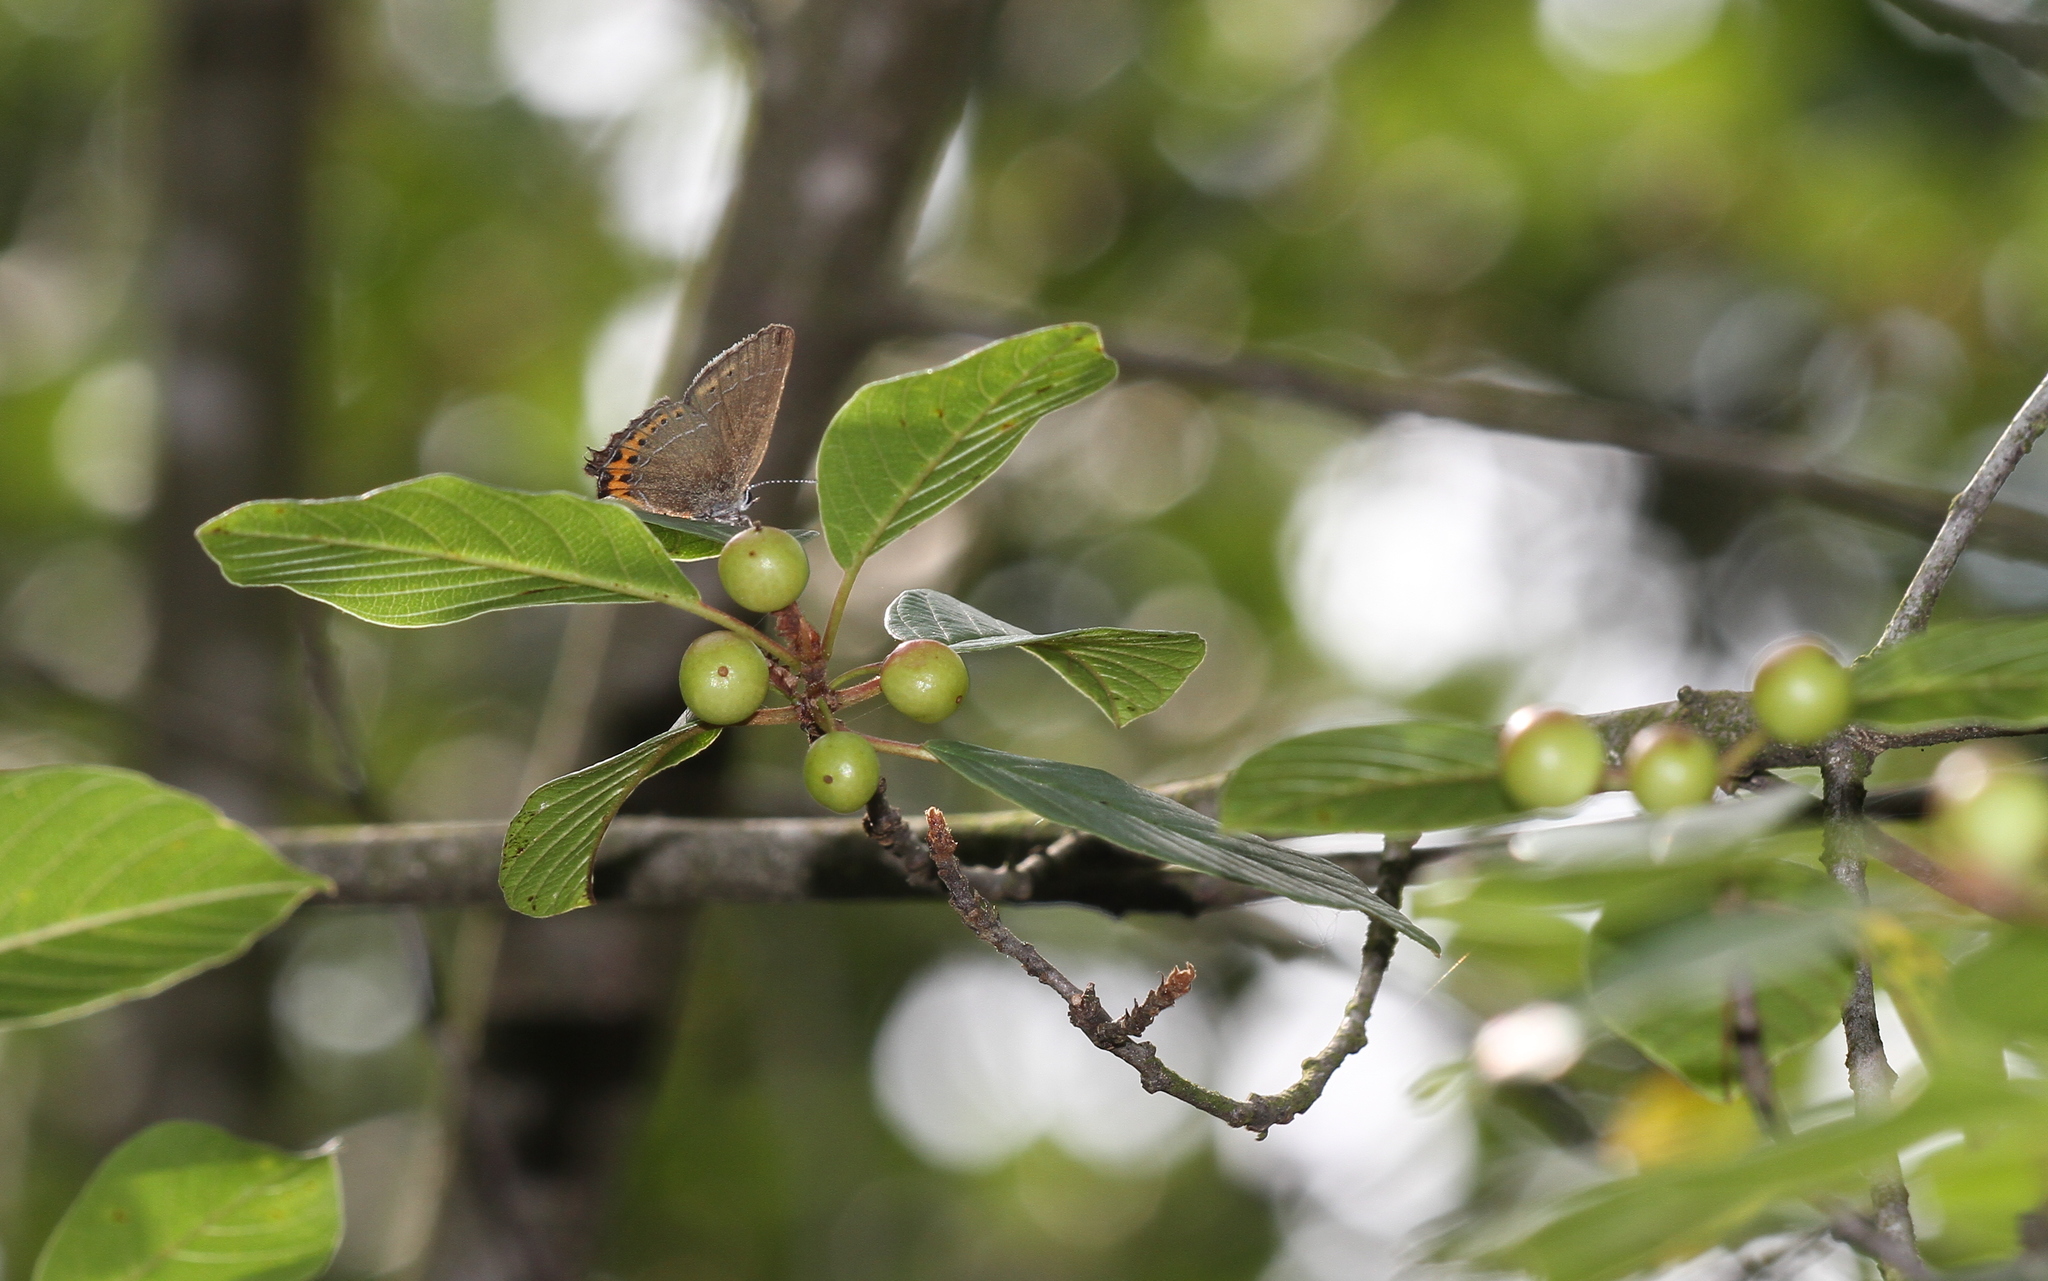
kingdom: Animalia
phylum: Arthropoda
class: Insecta
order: Lepidoptera
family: Lycaenidae
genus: Fixsenia
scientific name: Fixsenia pruni
